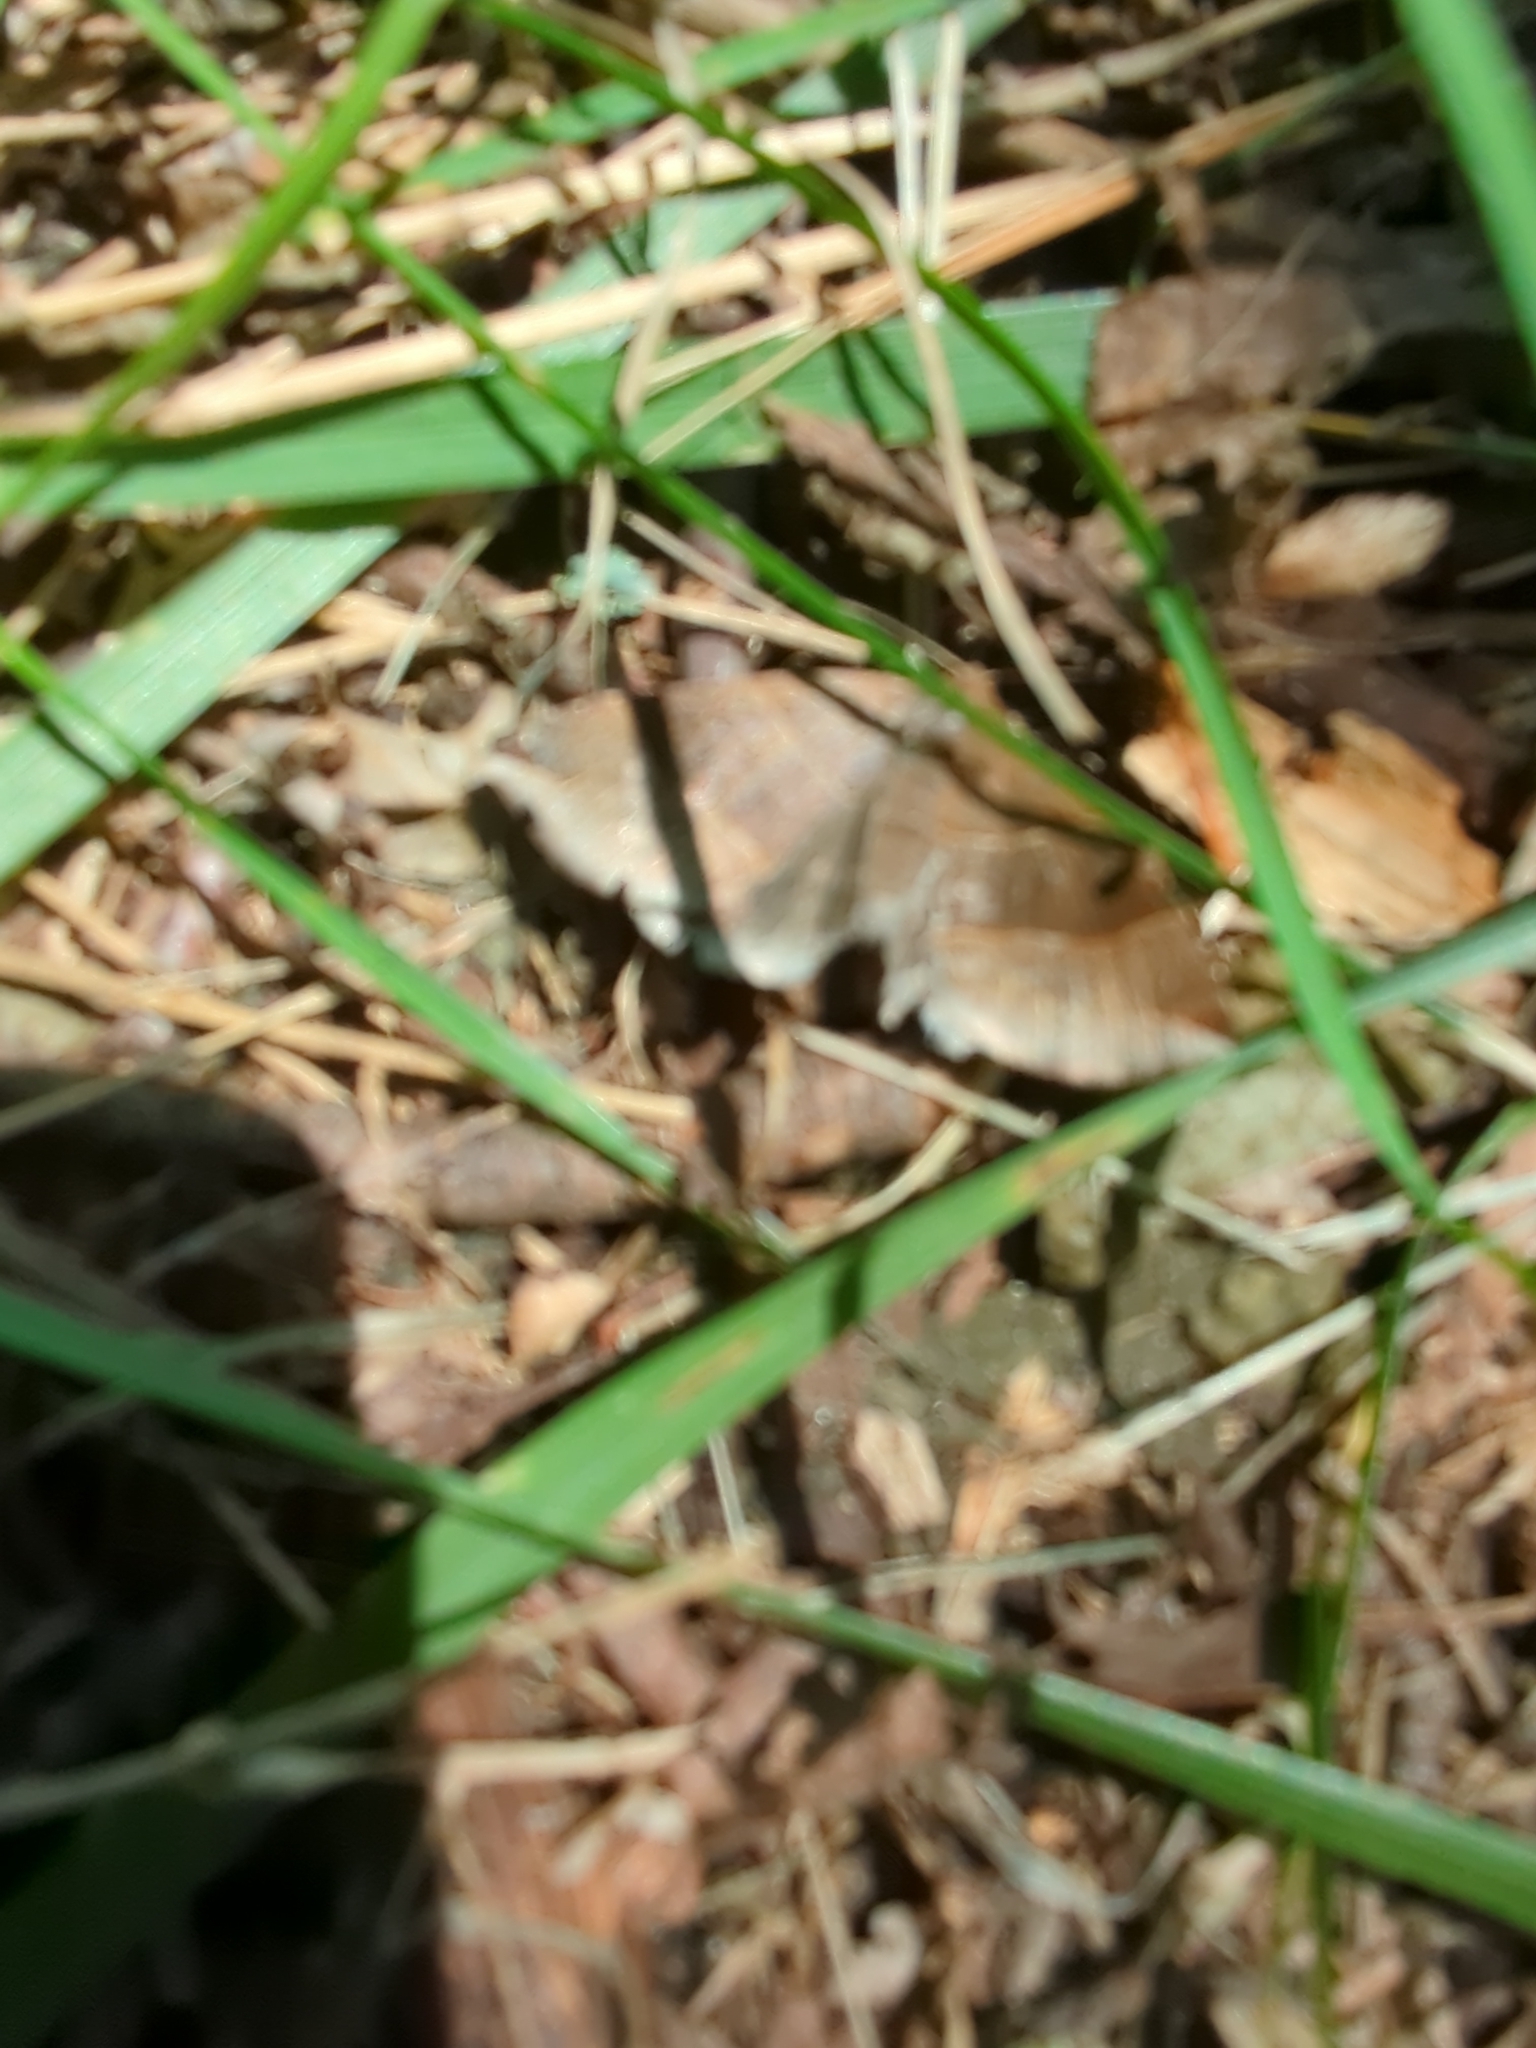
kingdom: Animalia
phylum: Arthropoda
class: Insecta
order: Lepidoptera
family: Erebidae
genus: Parallelia
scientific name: Parallelia bistriaris
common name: Maple looper moth
